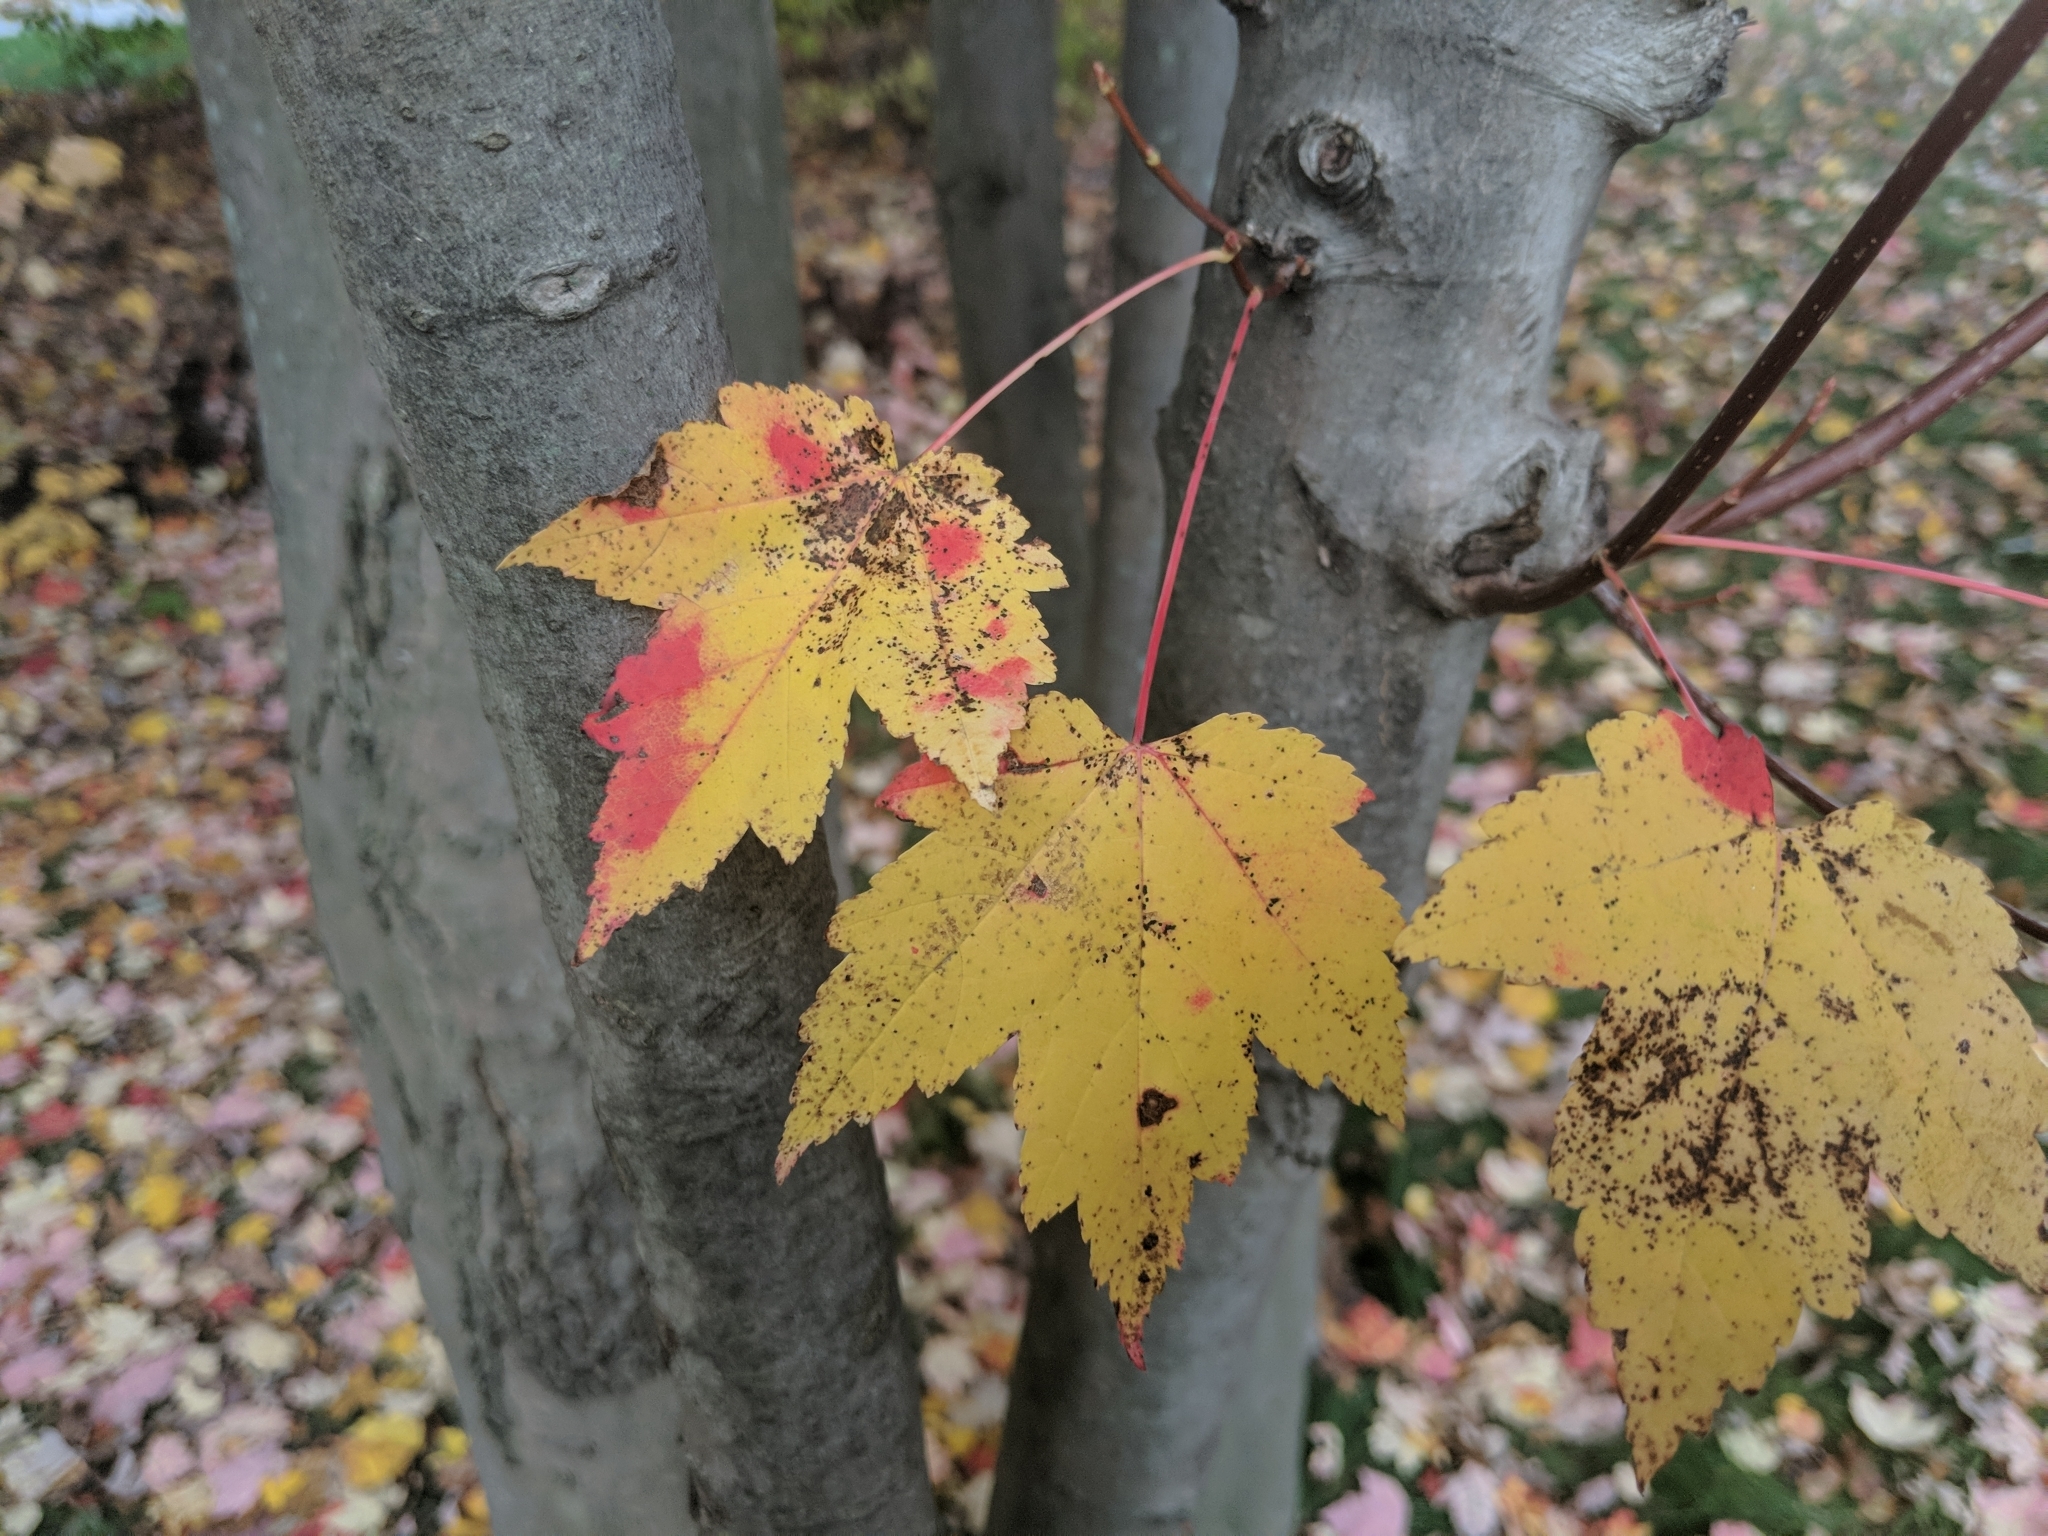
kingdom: Plantae
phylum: Tracheophyta
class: Magnoliopsida
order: Sapindales
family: Sapindaceae
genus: Acer
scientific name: Acer rubrum
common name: Red maple
